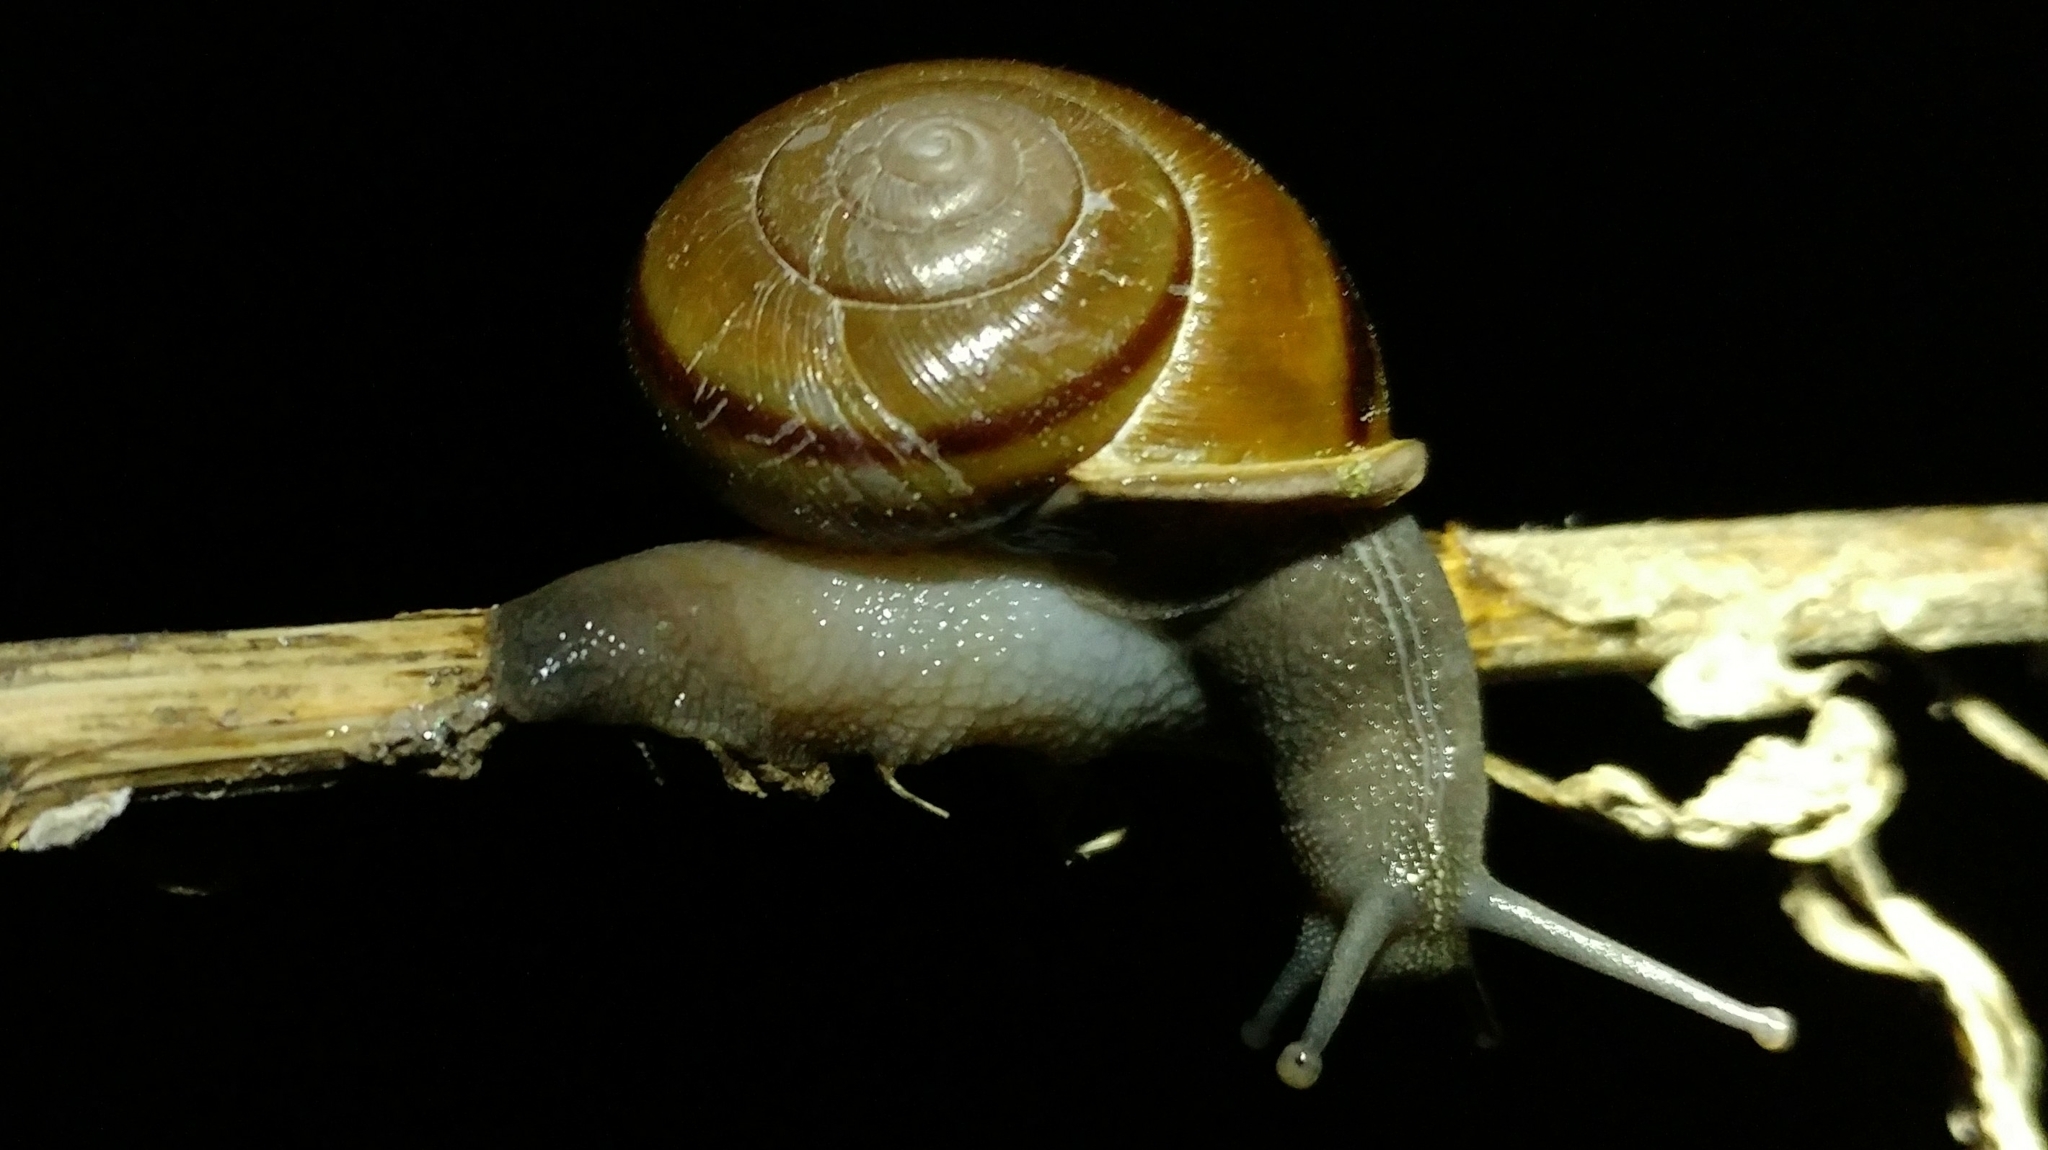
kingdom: Animalia
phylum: Mollusca
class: Gastropoda
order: Stylommatophora
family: Xanthonychidae
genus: Helminthoglypta
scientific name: Helminthoglypta traskii
